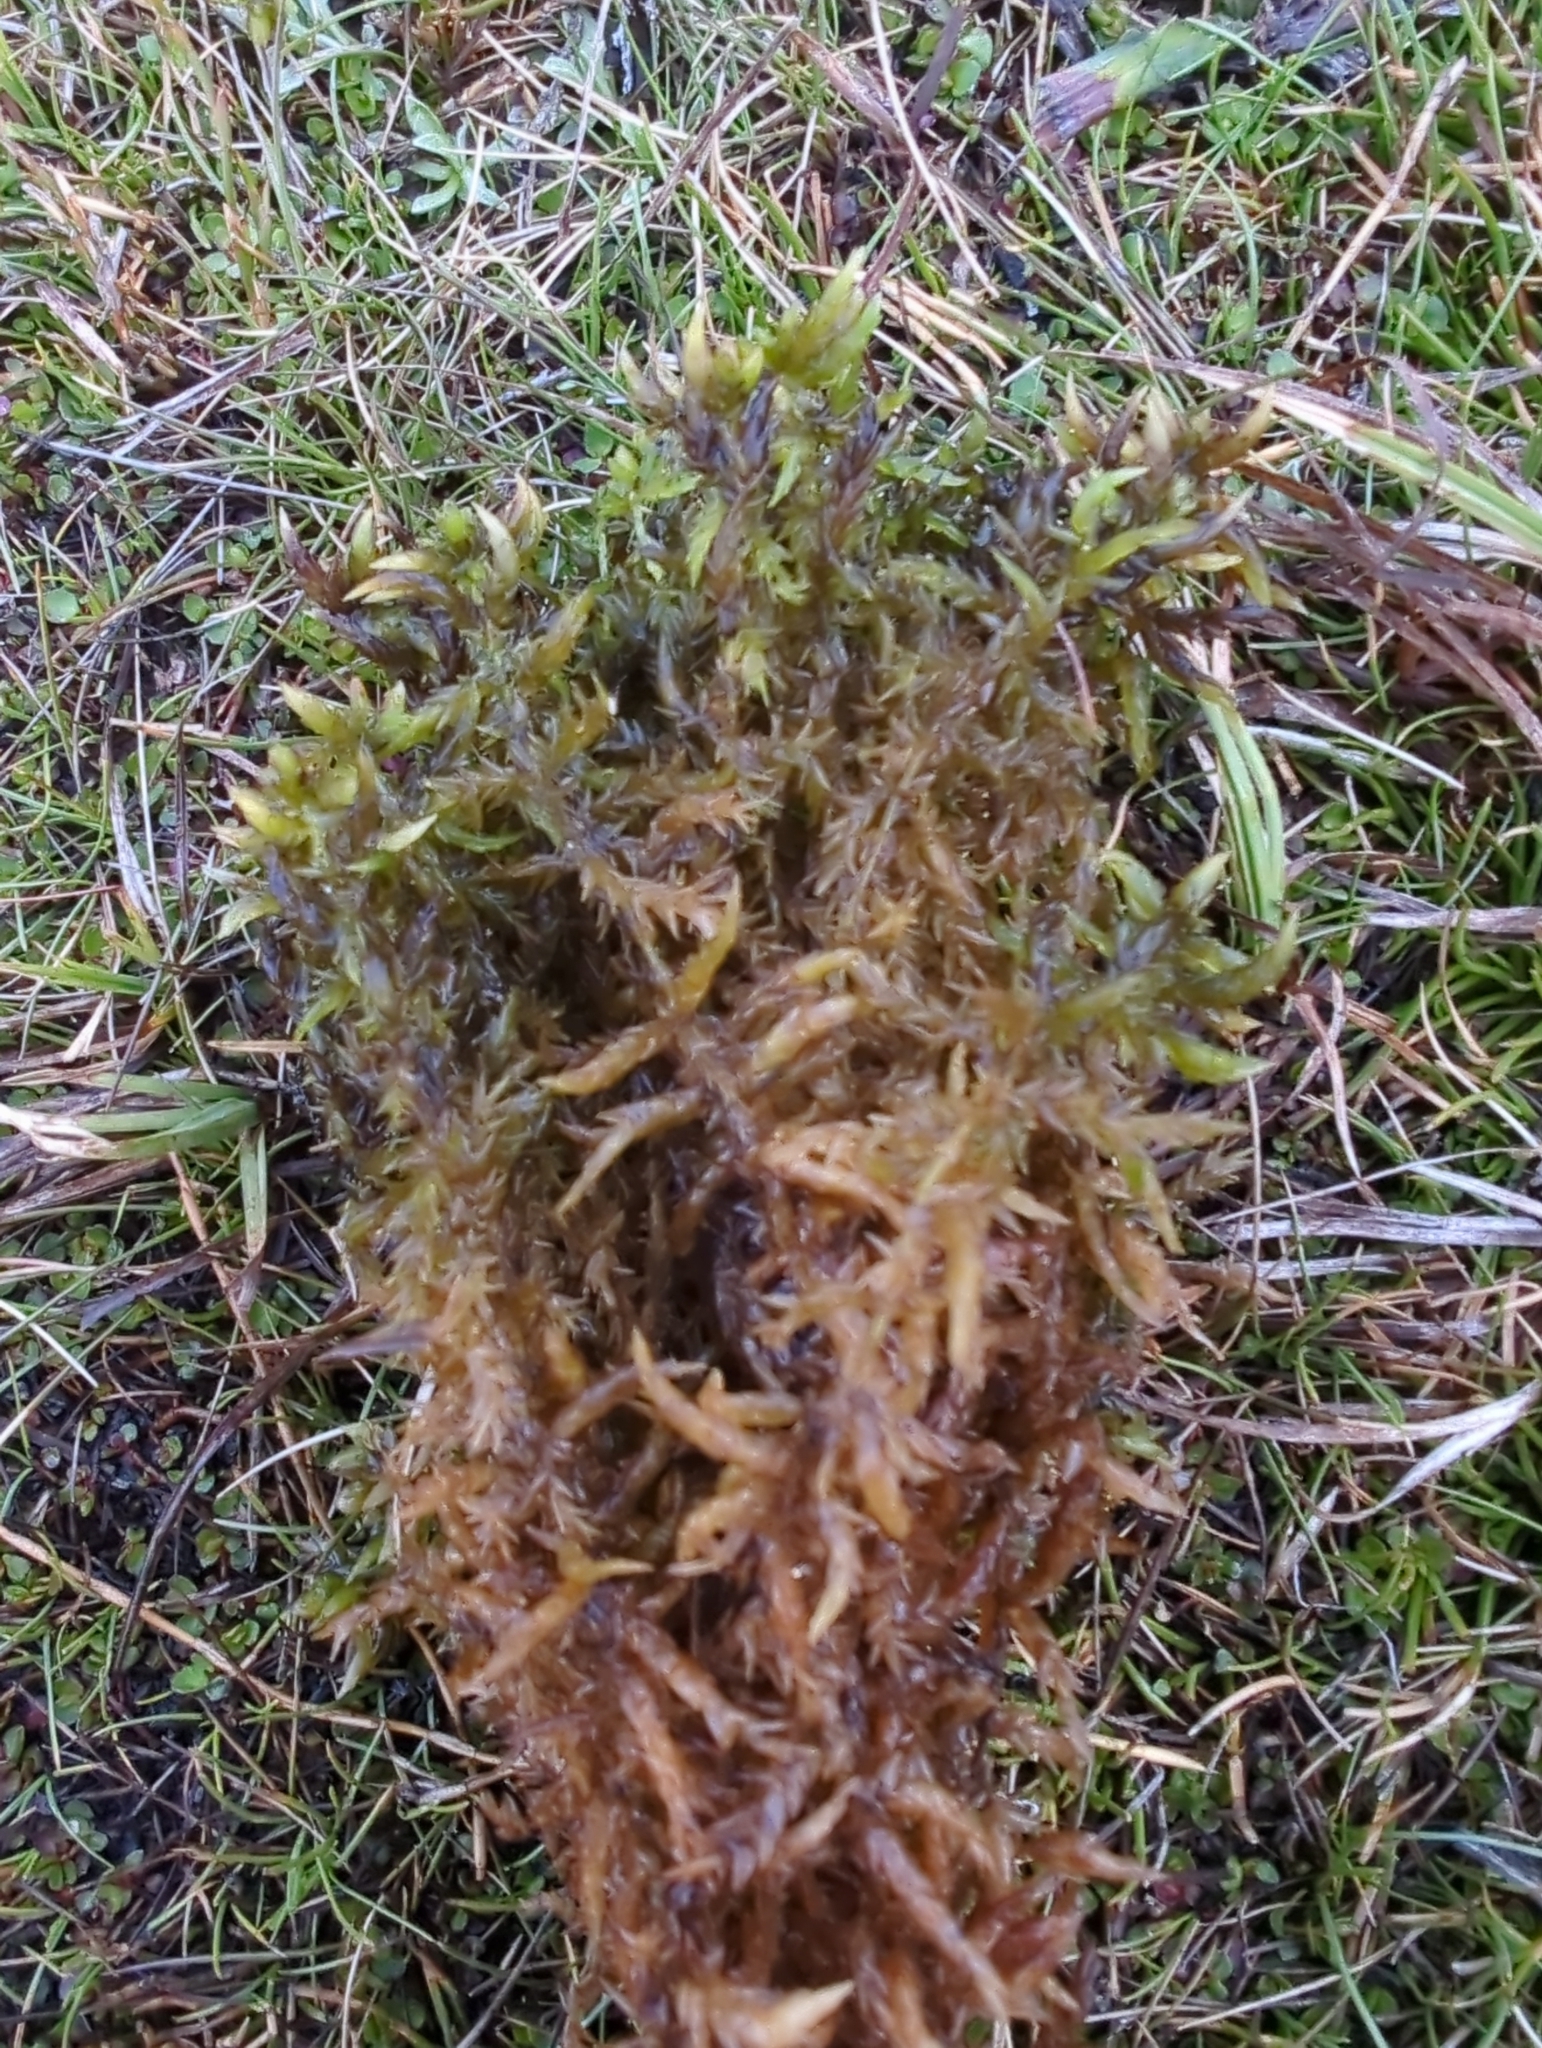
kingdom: Plantae
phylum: Bryophyta
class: Sphagnopsida
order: Sphagnales
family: Sphagnaceae
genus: Sphagnum
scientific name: Sphagnum cristatum
